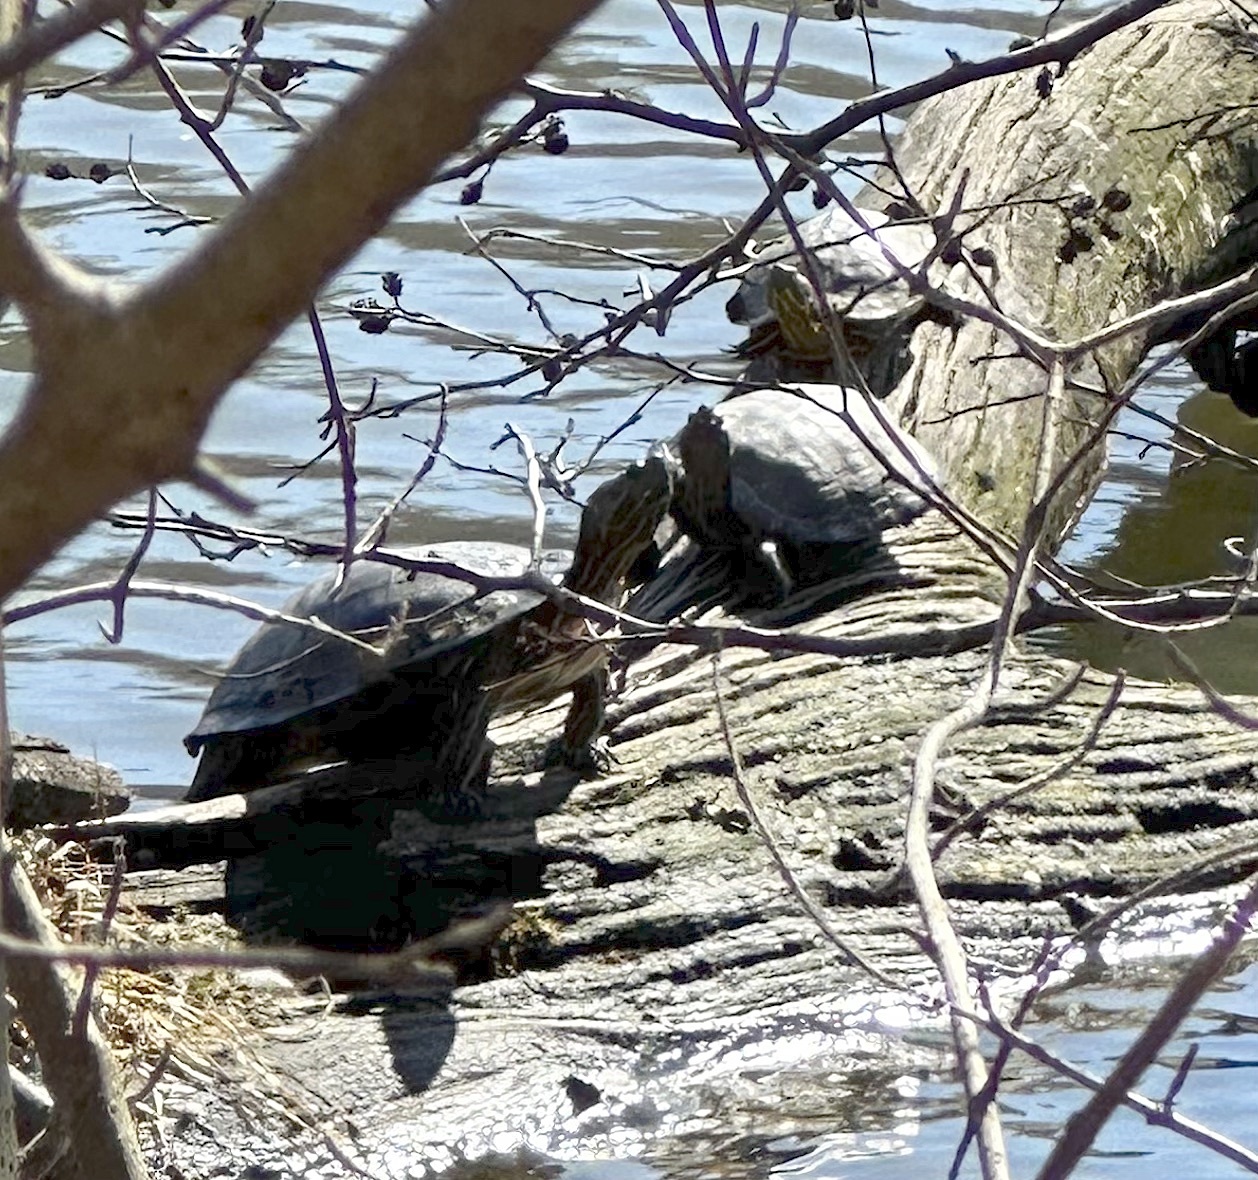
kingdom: Animalia
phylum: Chordata
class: Testudines
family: Emydidae
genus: Trachemys
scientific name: Trachemys scripta
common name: Slider
